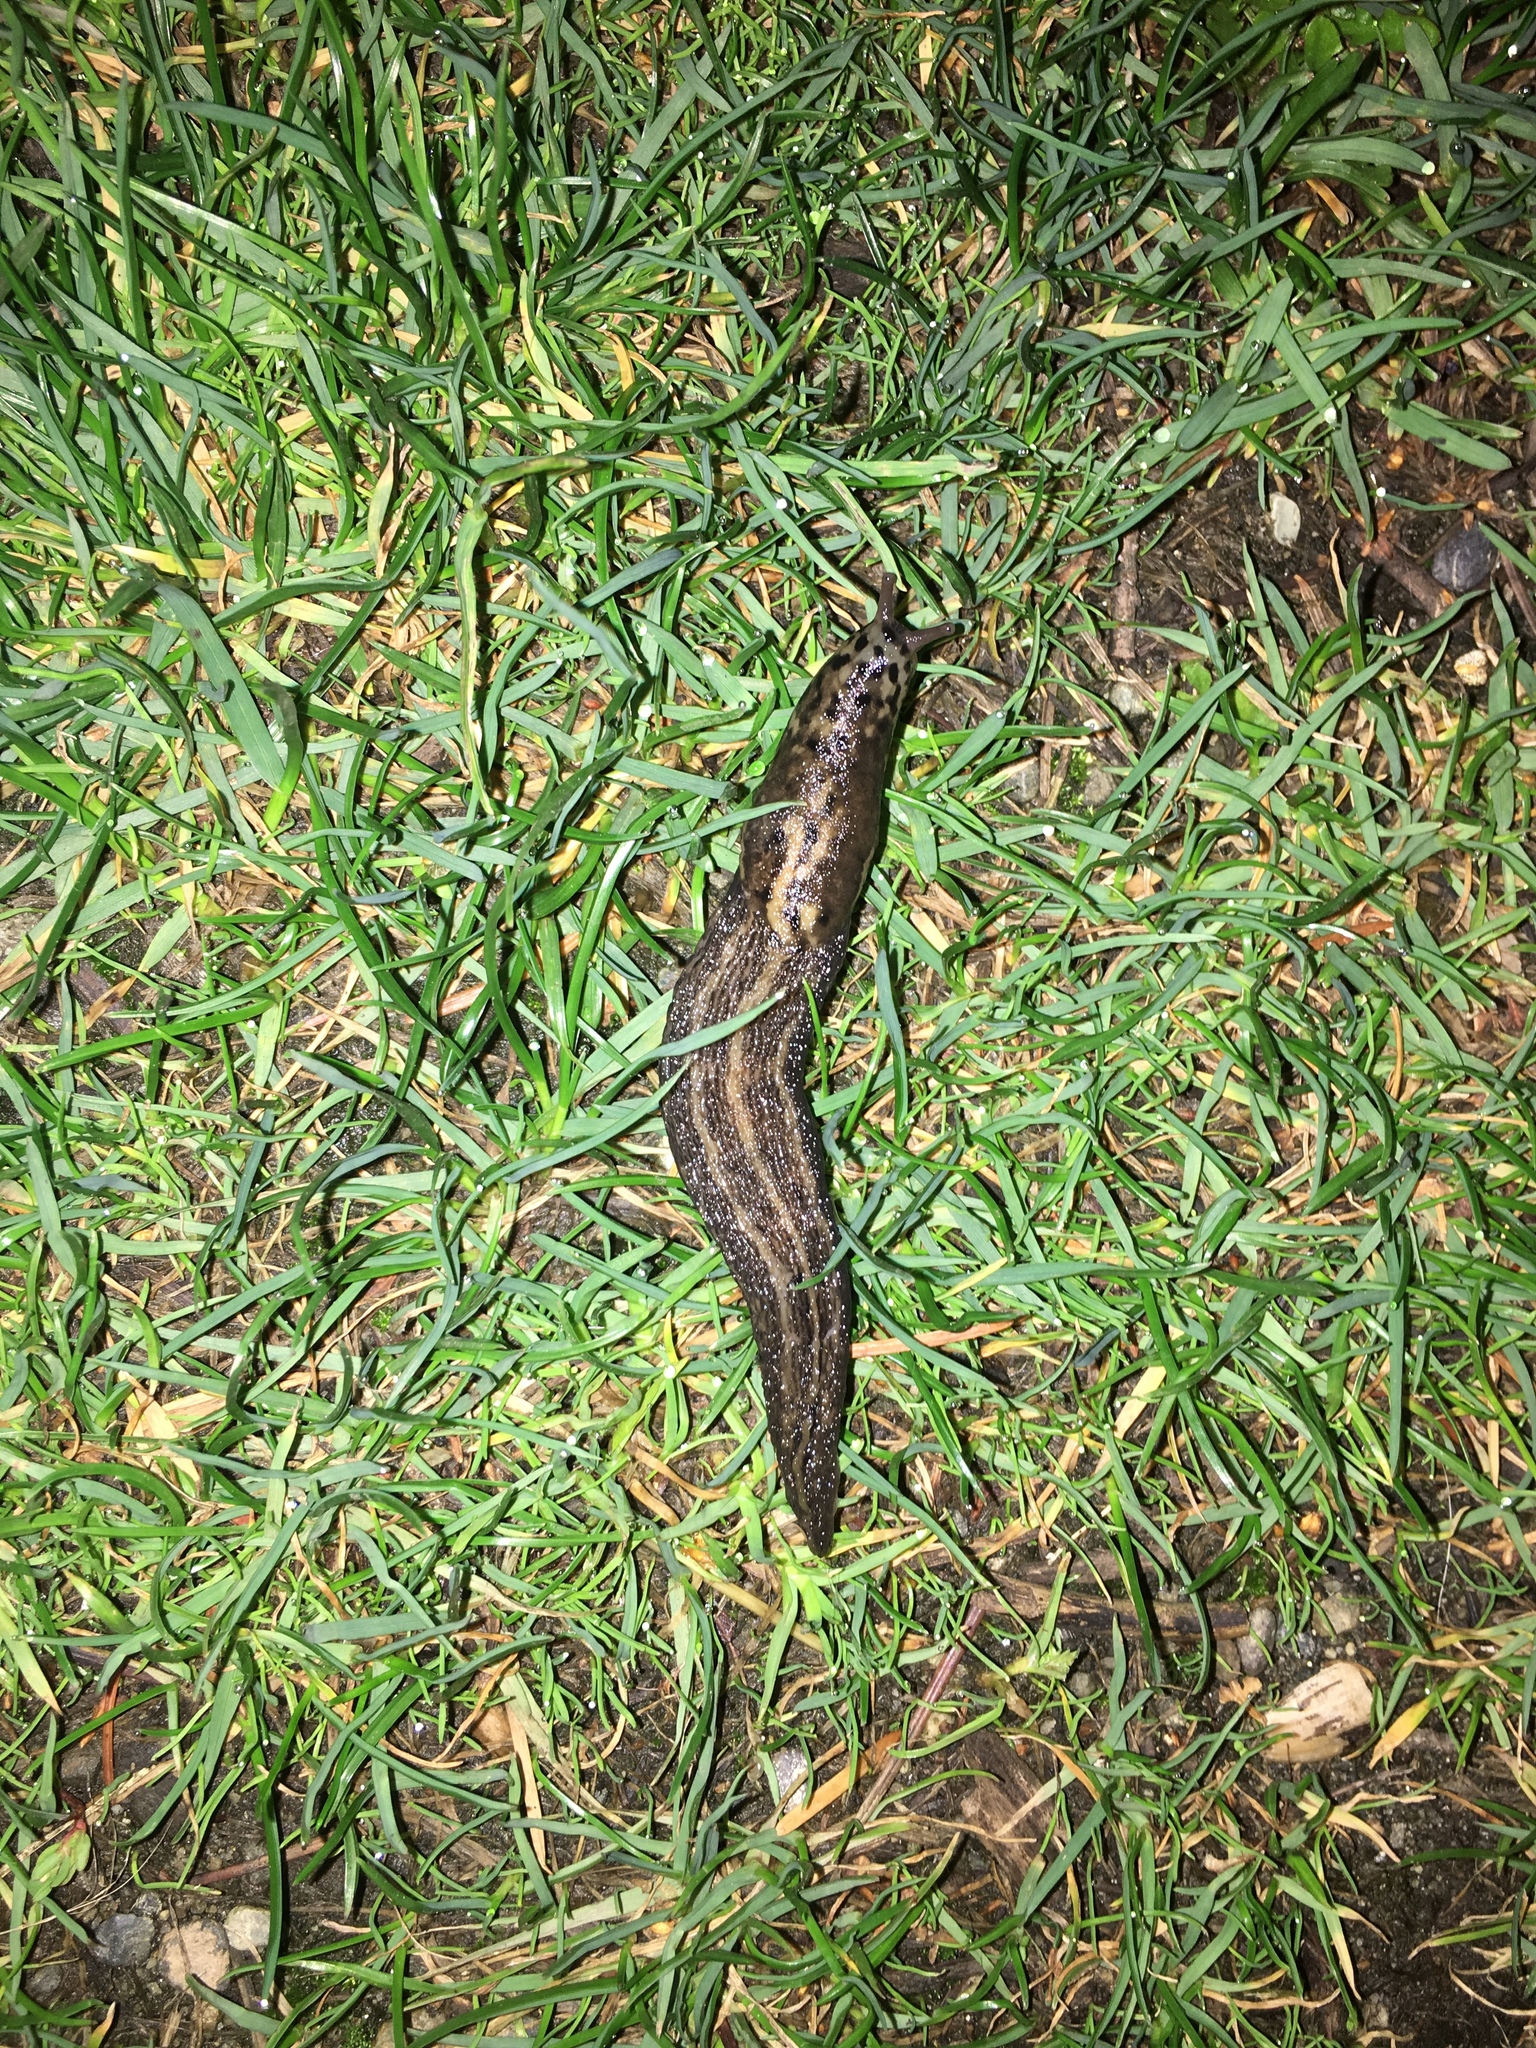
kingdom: Animalia
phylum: Mollusca
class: Gastropoda
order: Stylommatophora
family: Limacidae
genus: Limax
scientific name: Limax maximus
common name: Great grey slug
